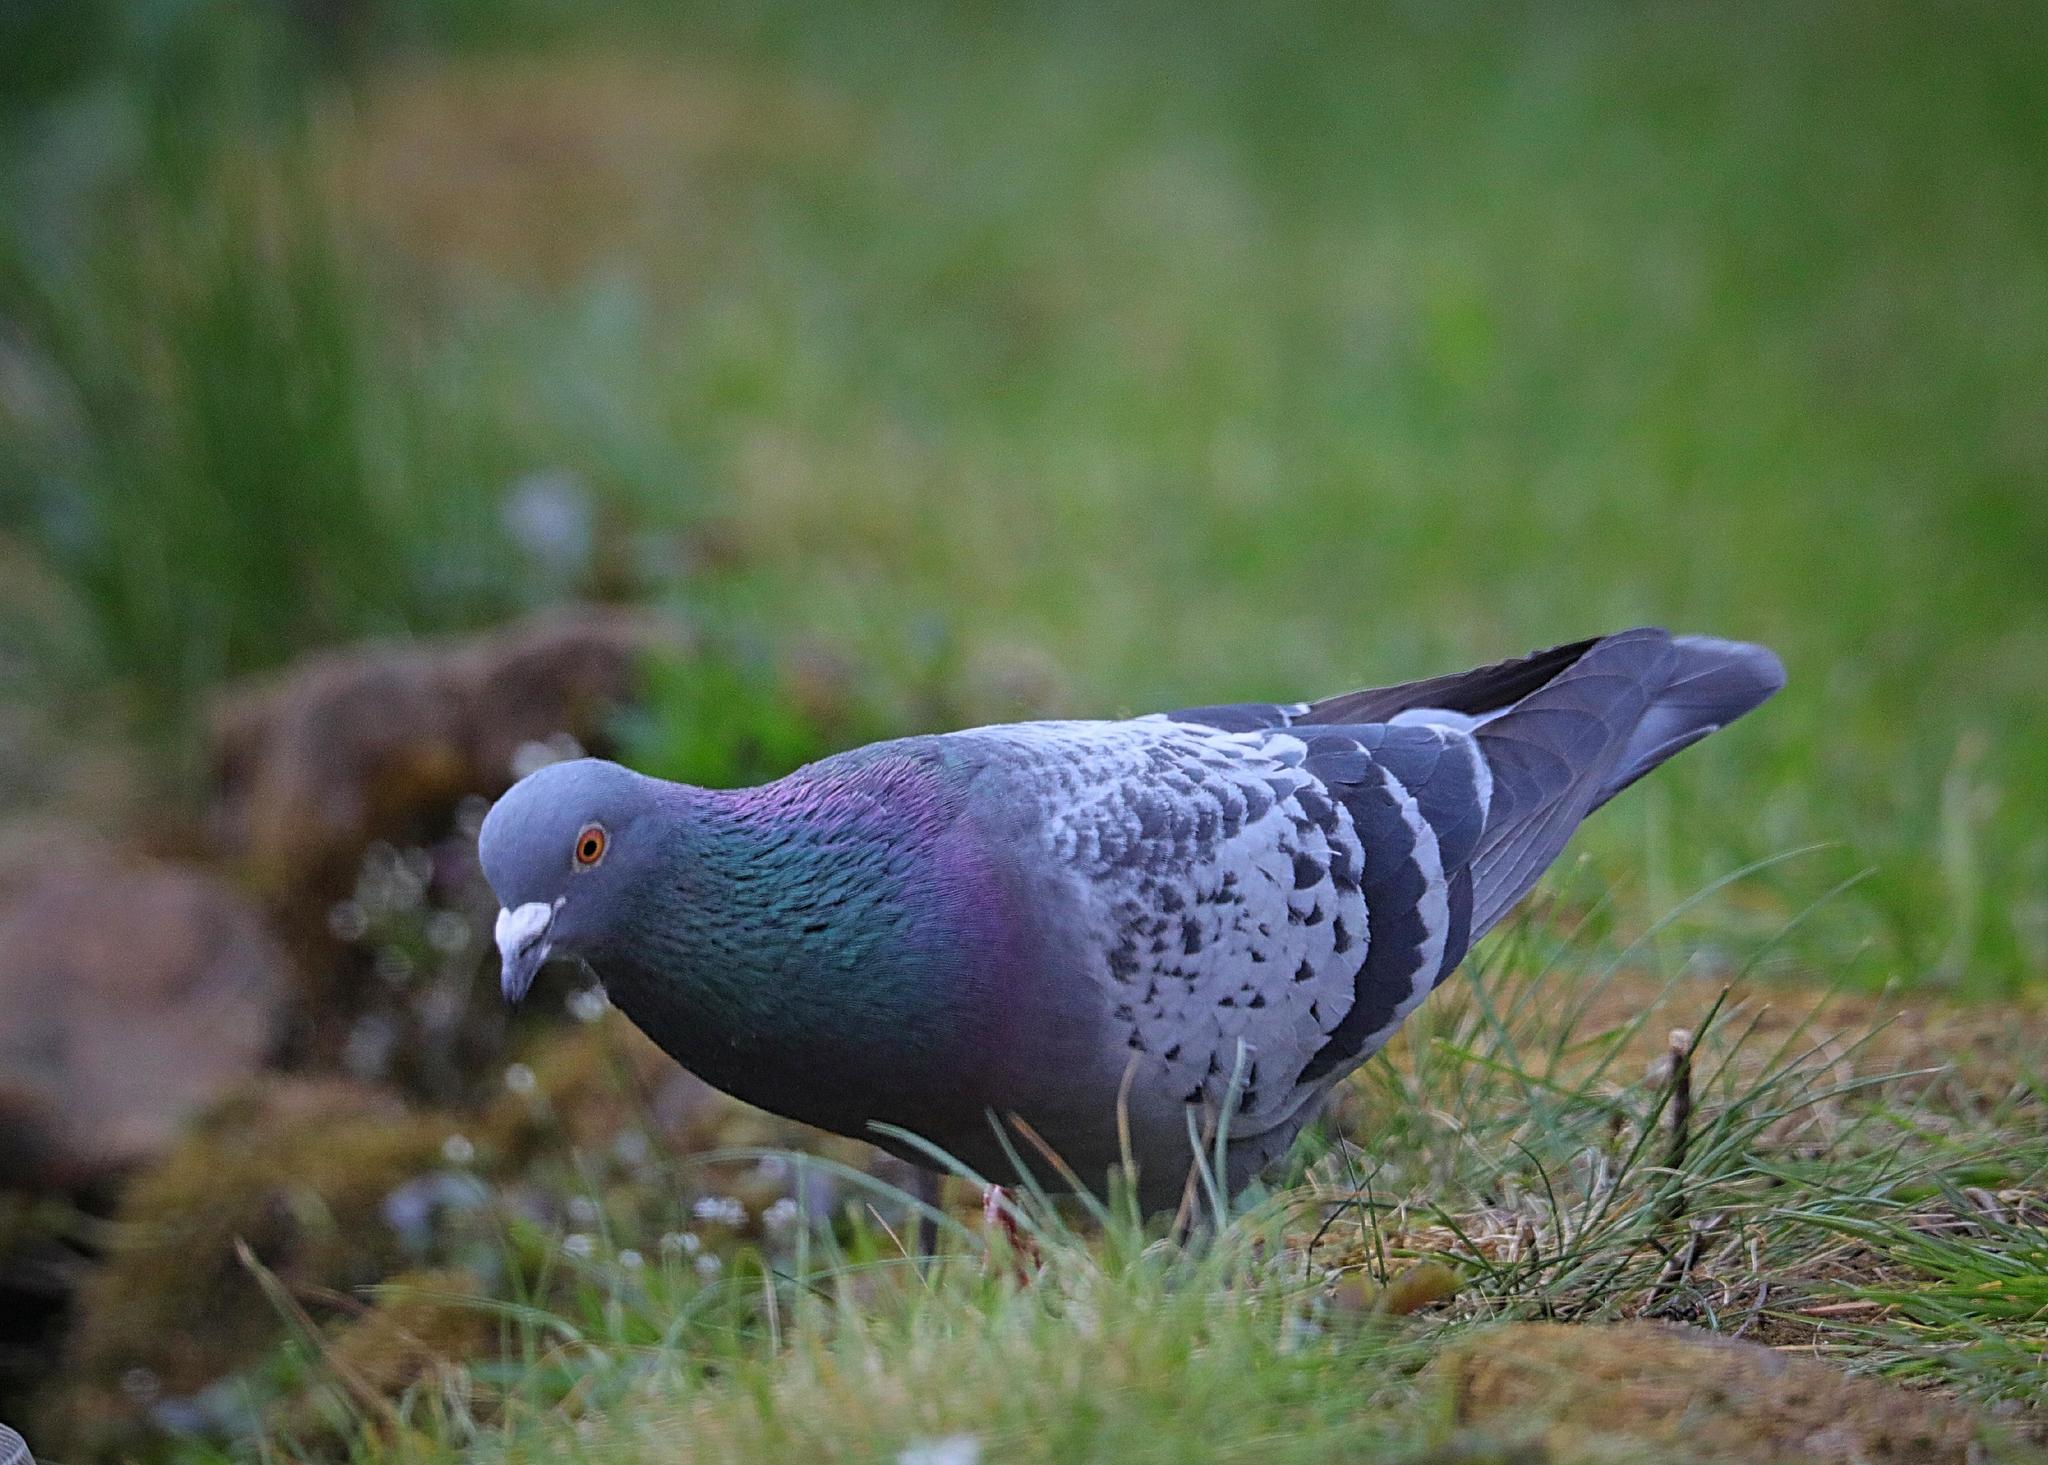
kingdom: Animalia
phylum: Chordata
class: Aves
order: Columbiformes
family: Columbidae
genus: Columba
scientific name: Columba livia
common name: Rock pigeon
